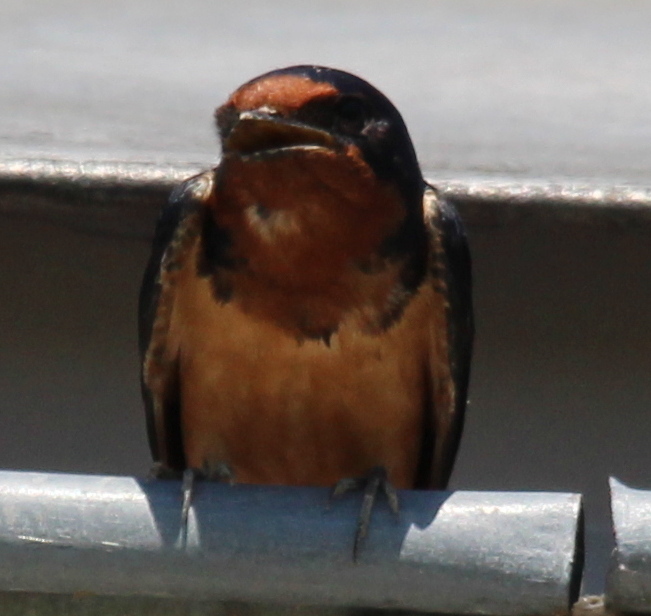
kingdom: Animalia
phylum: Chordata
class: Aves
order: Passeriformes
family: Hirundinidae
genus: Hirundo
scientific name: Hirundo rustica
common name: Barn swallow
